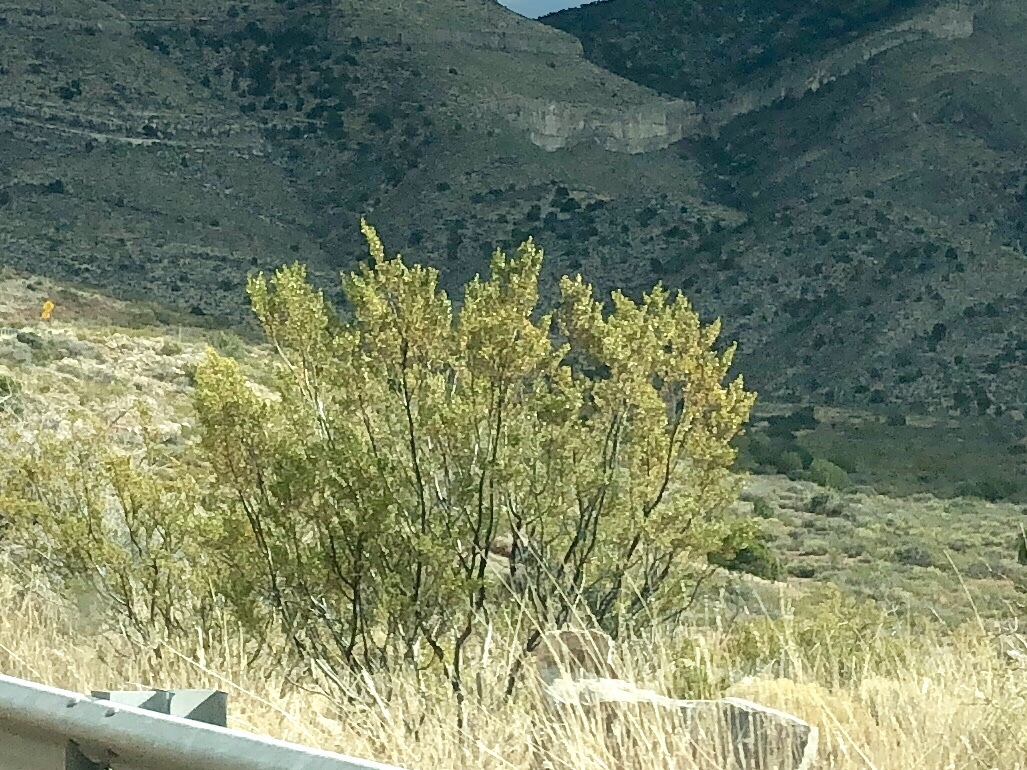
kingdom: Plantae
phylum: Tracheophyta
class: Magnoliopsida
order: Zygophyllales
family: Zygophyllaceae
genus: Larrea
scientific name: Larrea tridentata
